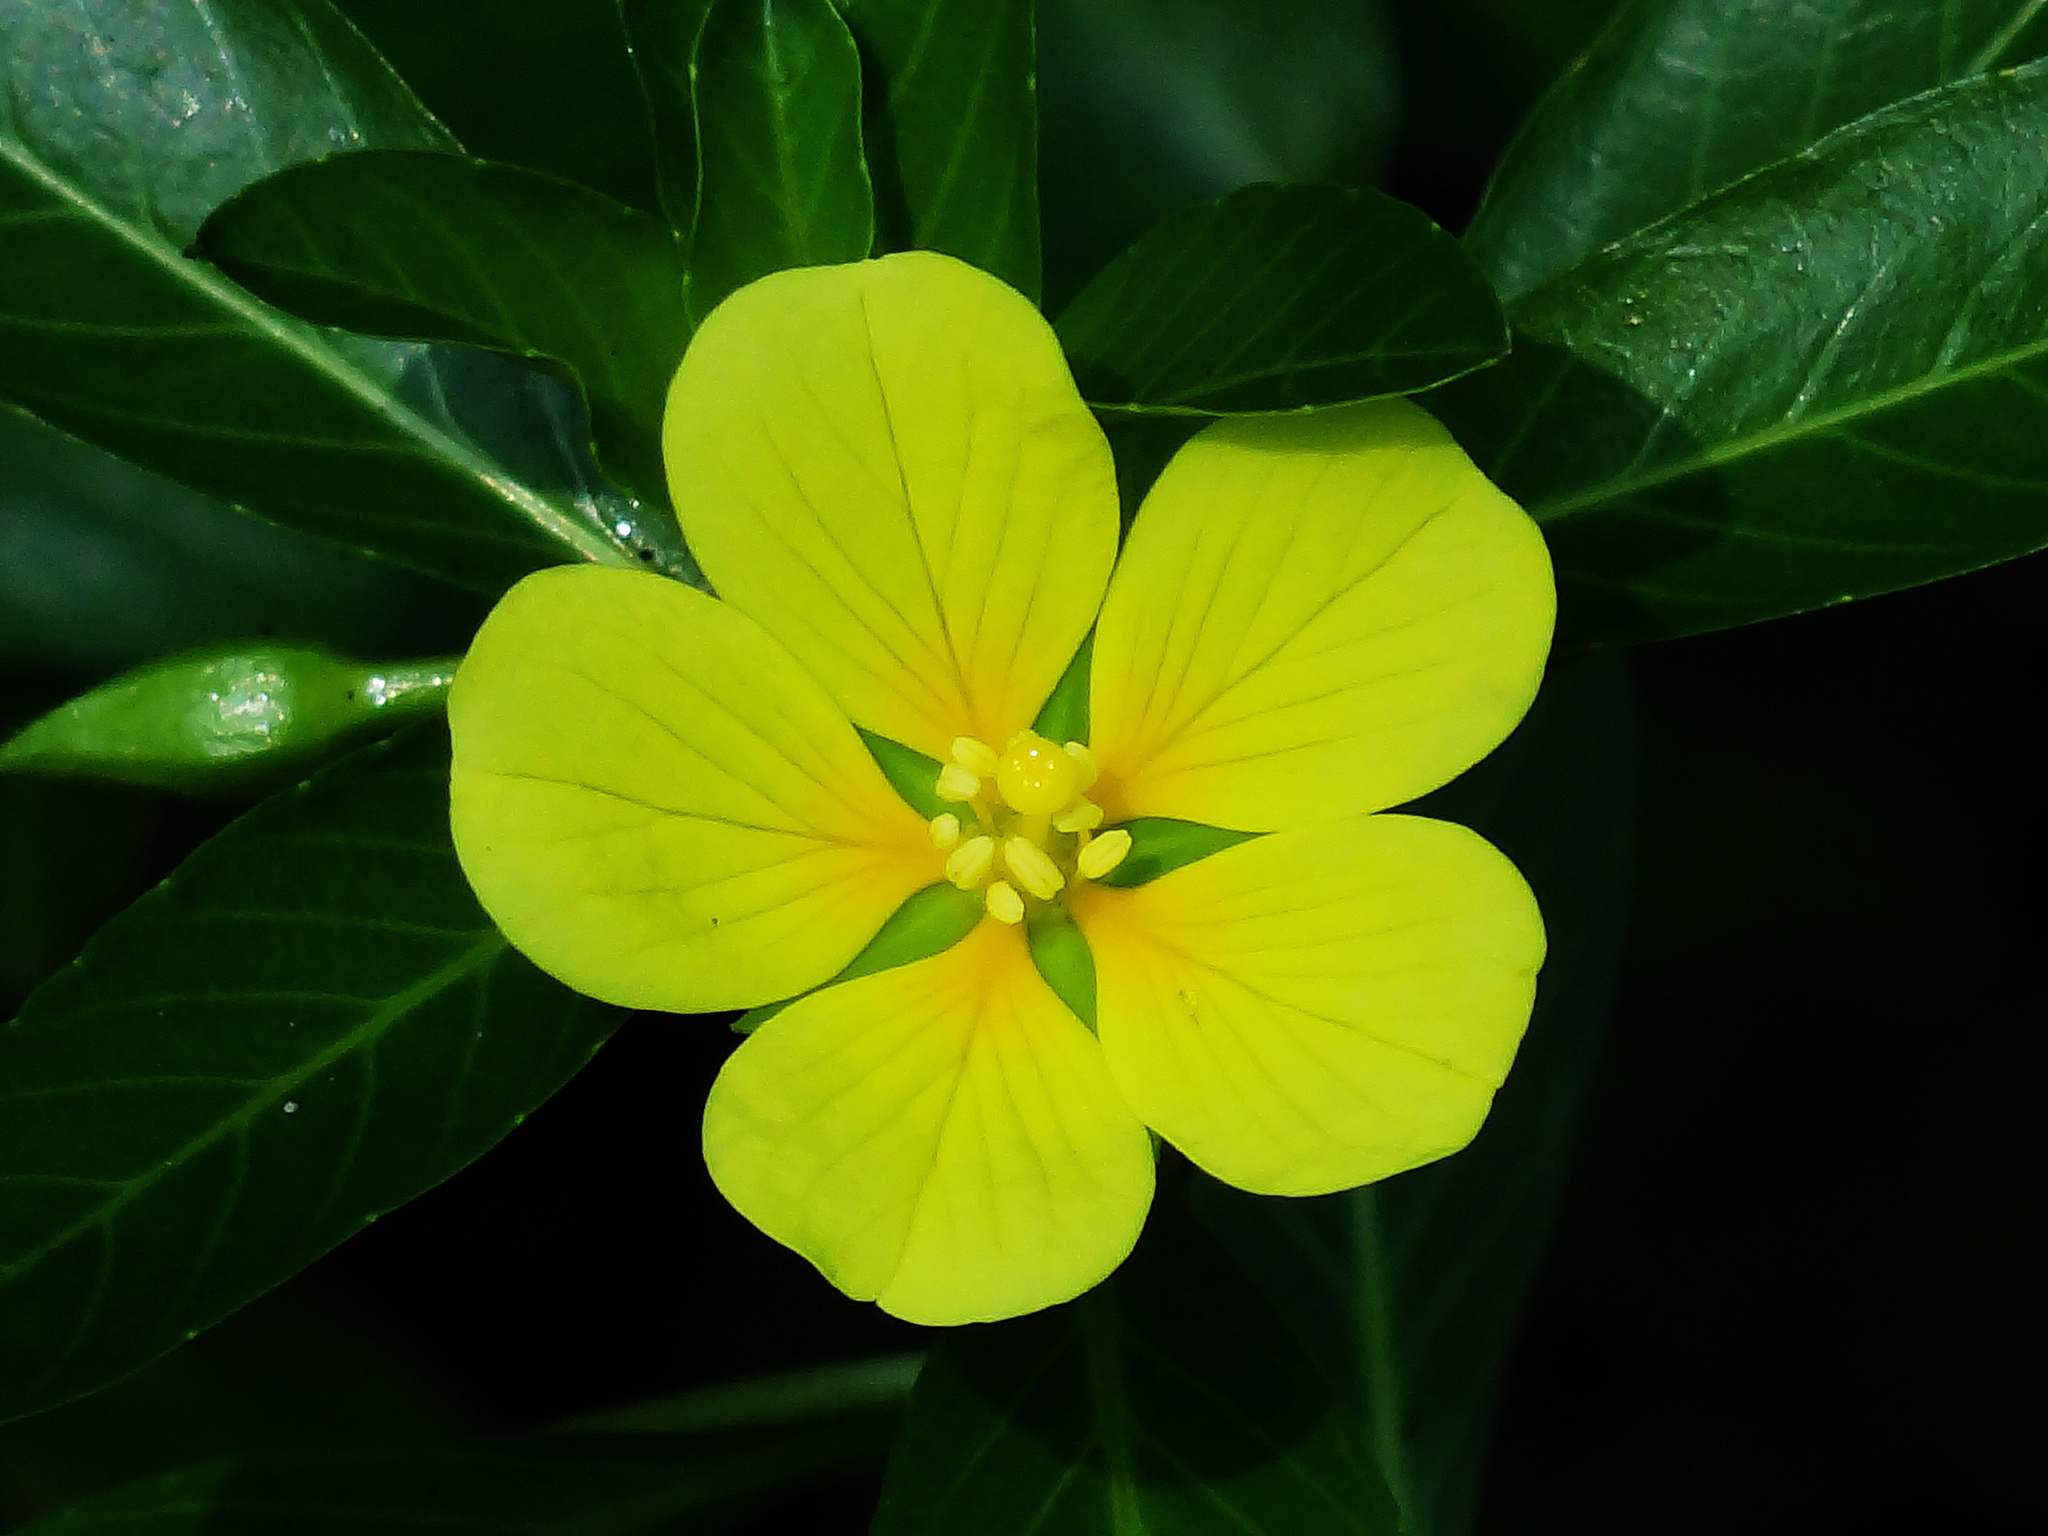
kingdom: Plantae
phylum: Tracheophyta
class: Magnoliopsida
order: Myrtales
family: Onagraceae
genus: Ludwigia
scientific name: Ludwigia taiwanensis
